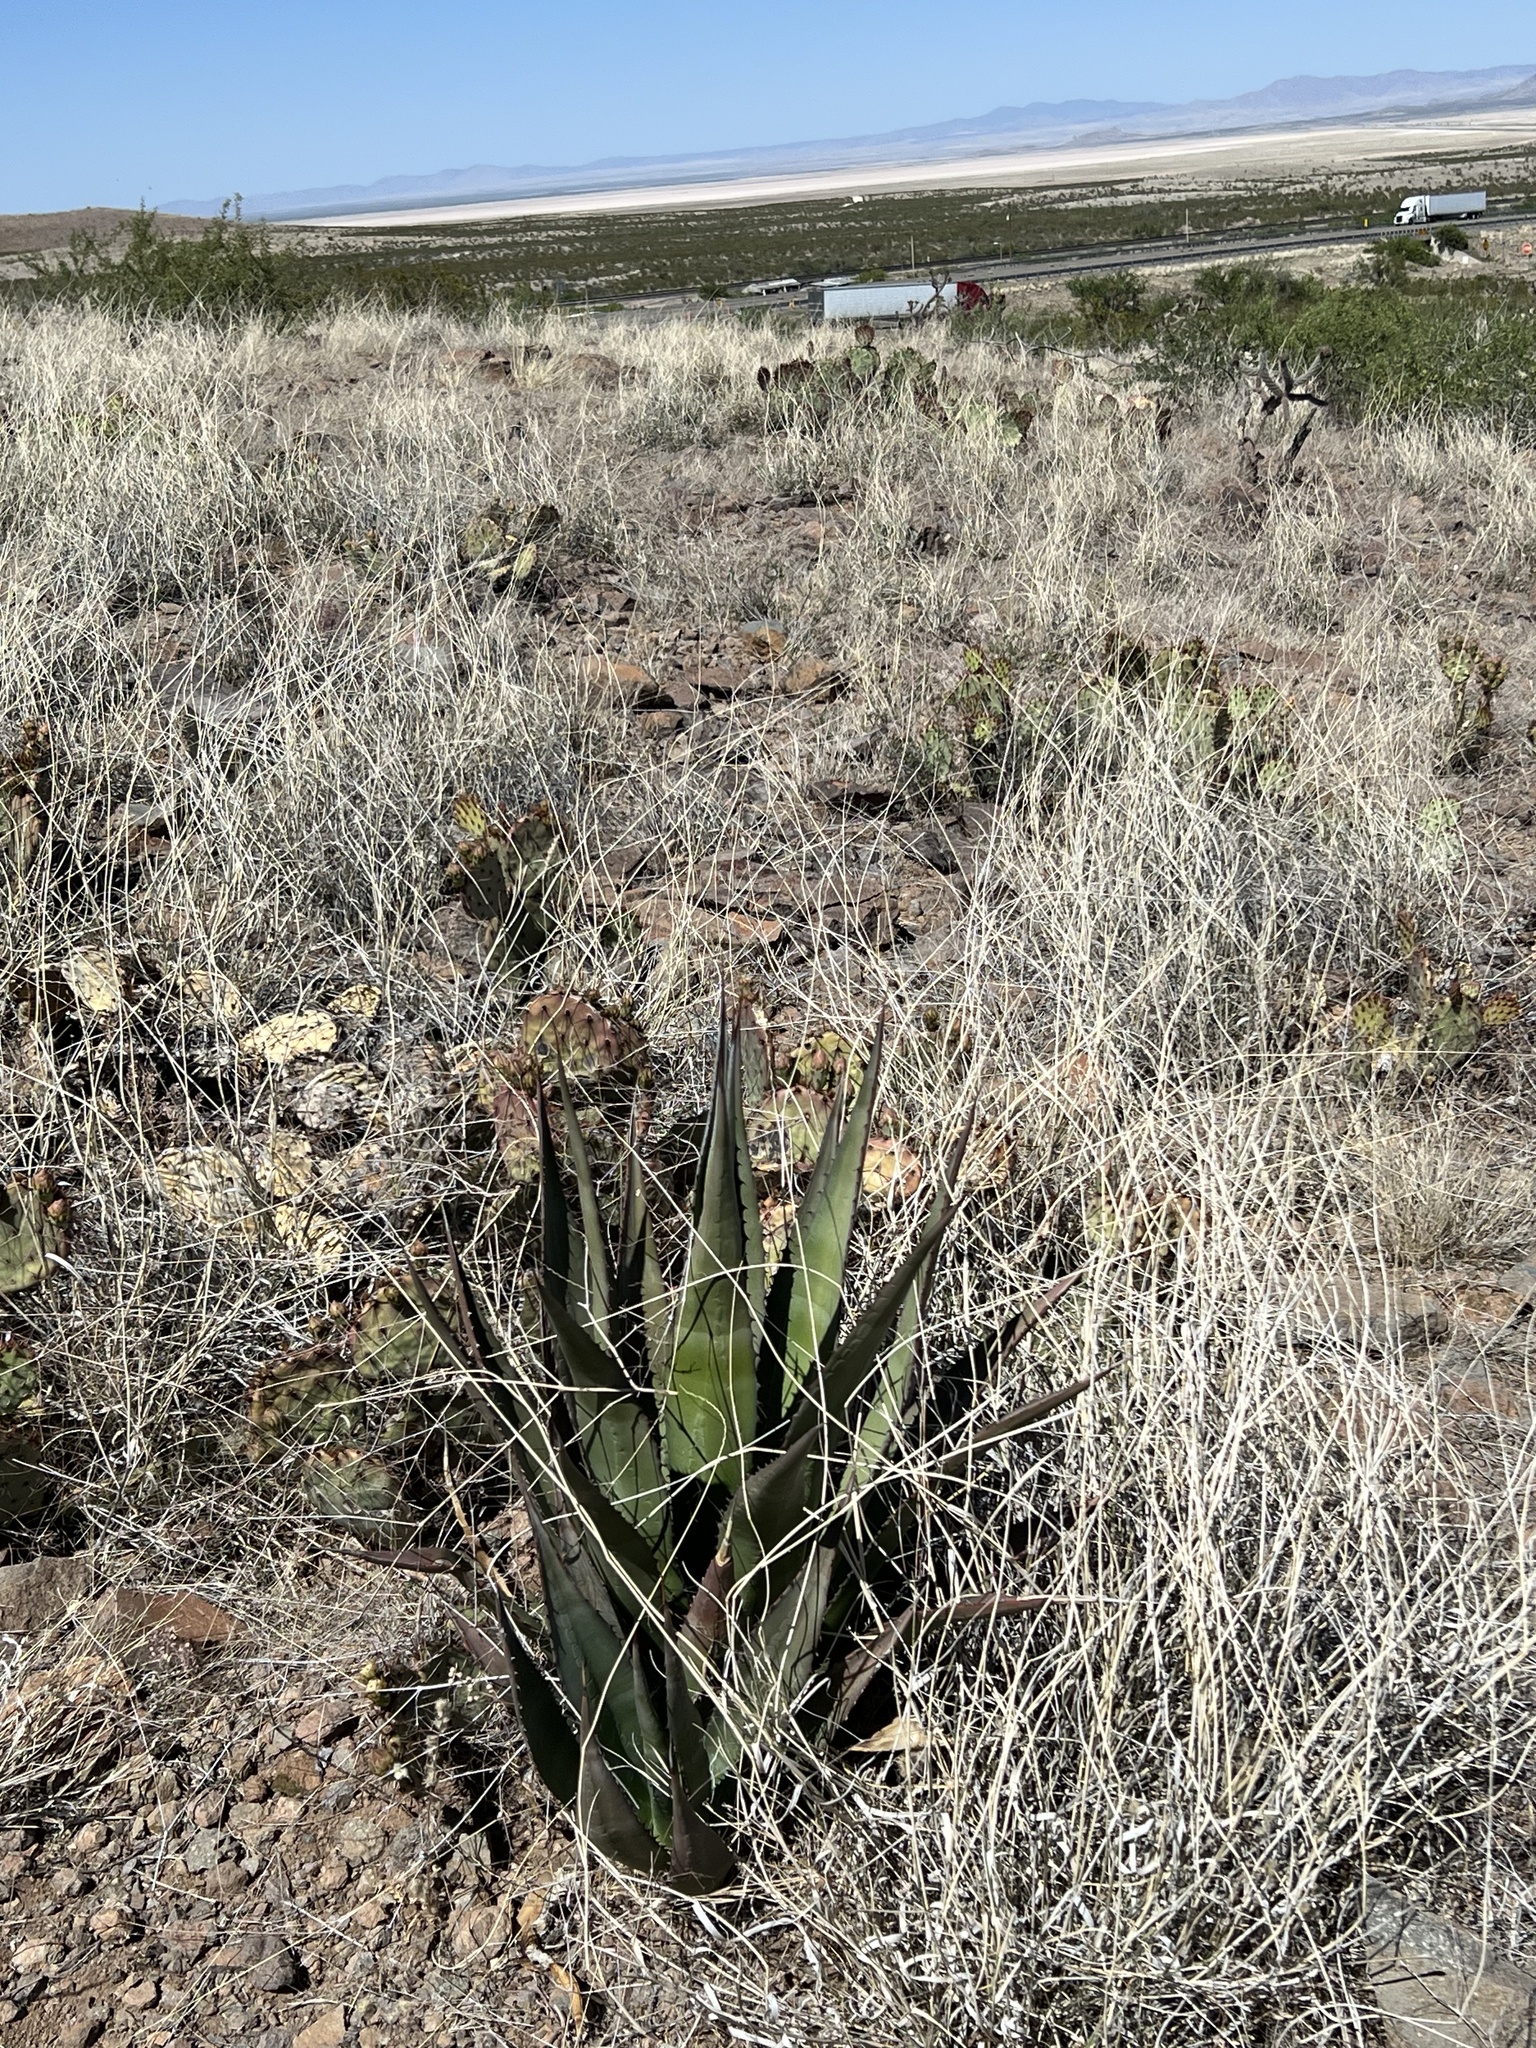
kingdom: Plantae
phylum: Tracheophyta
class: Liliopsida
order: Asparagales
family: Asparagaceae
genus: Agave
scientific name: Agave palmeri
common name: Palmer agave
